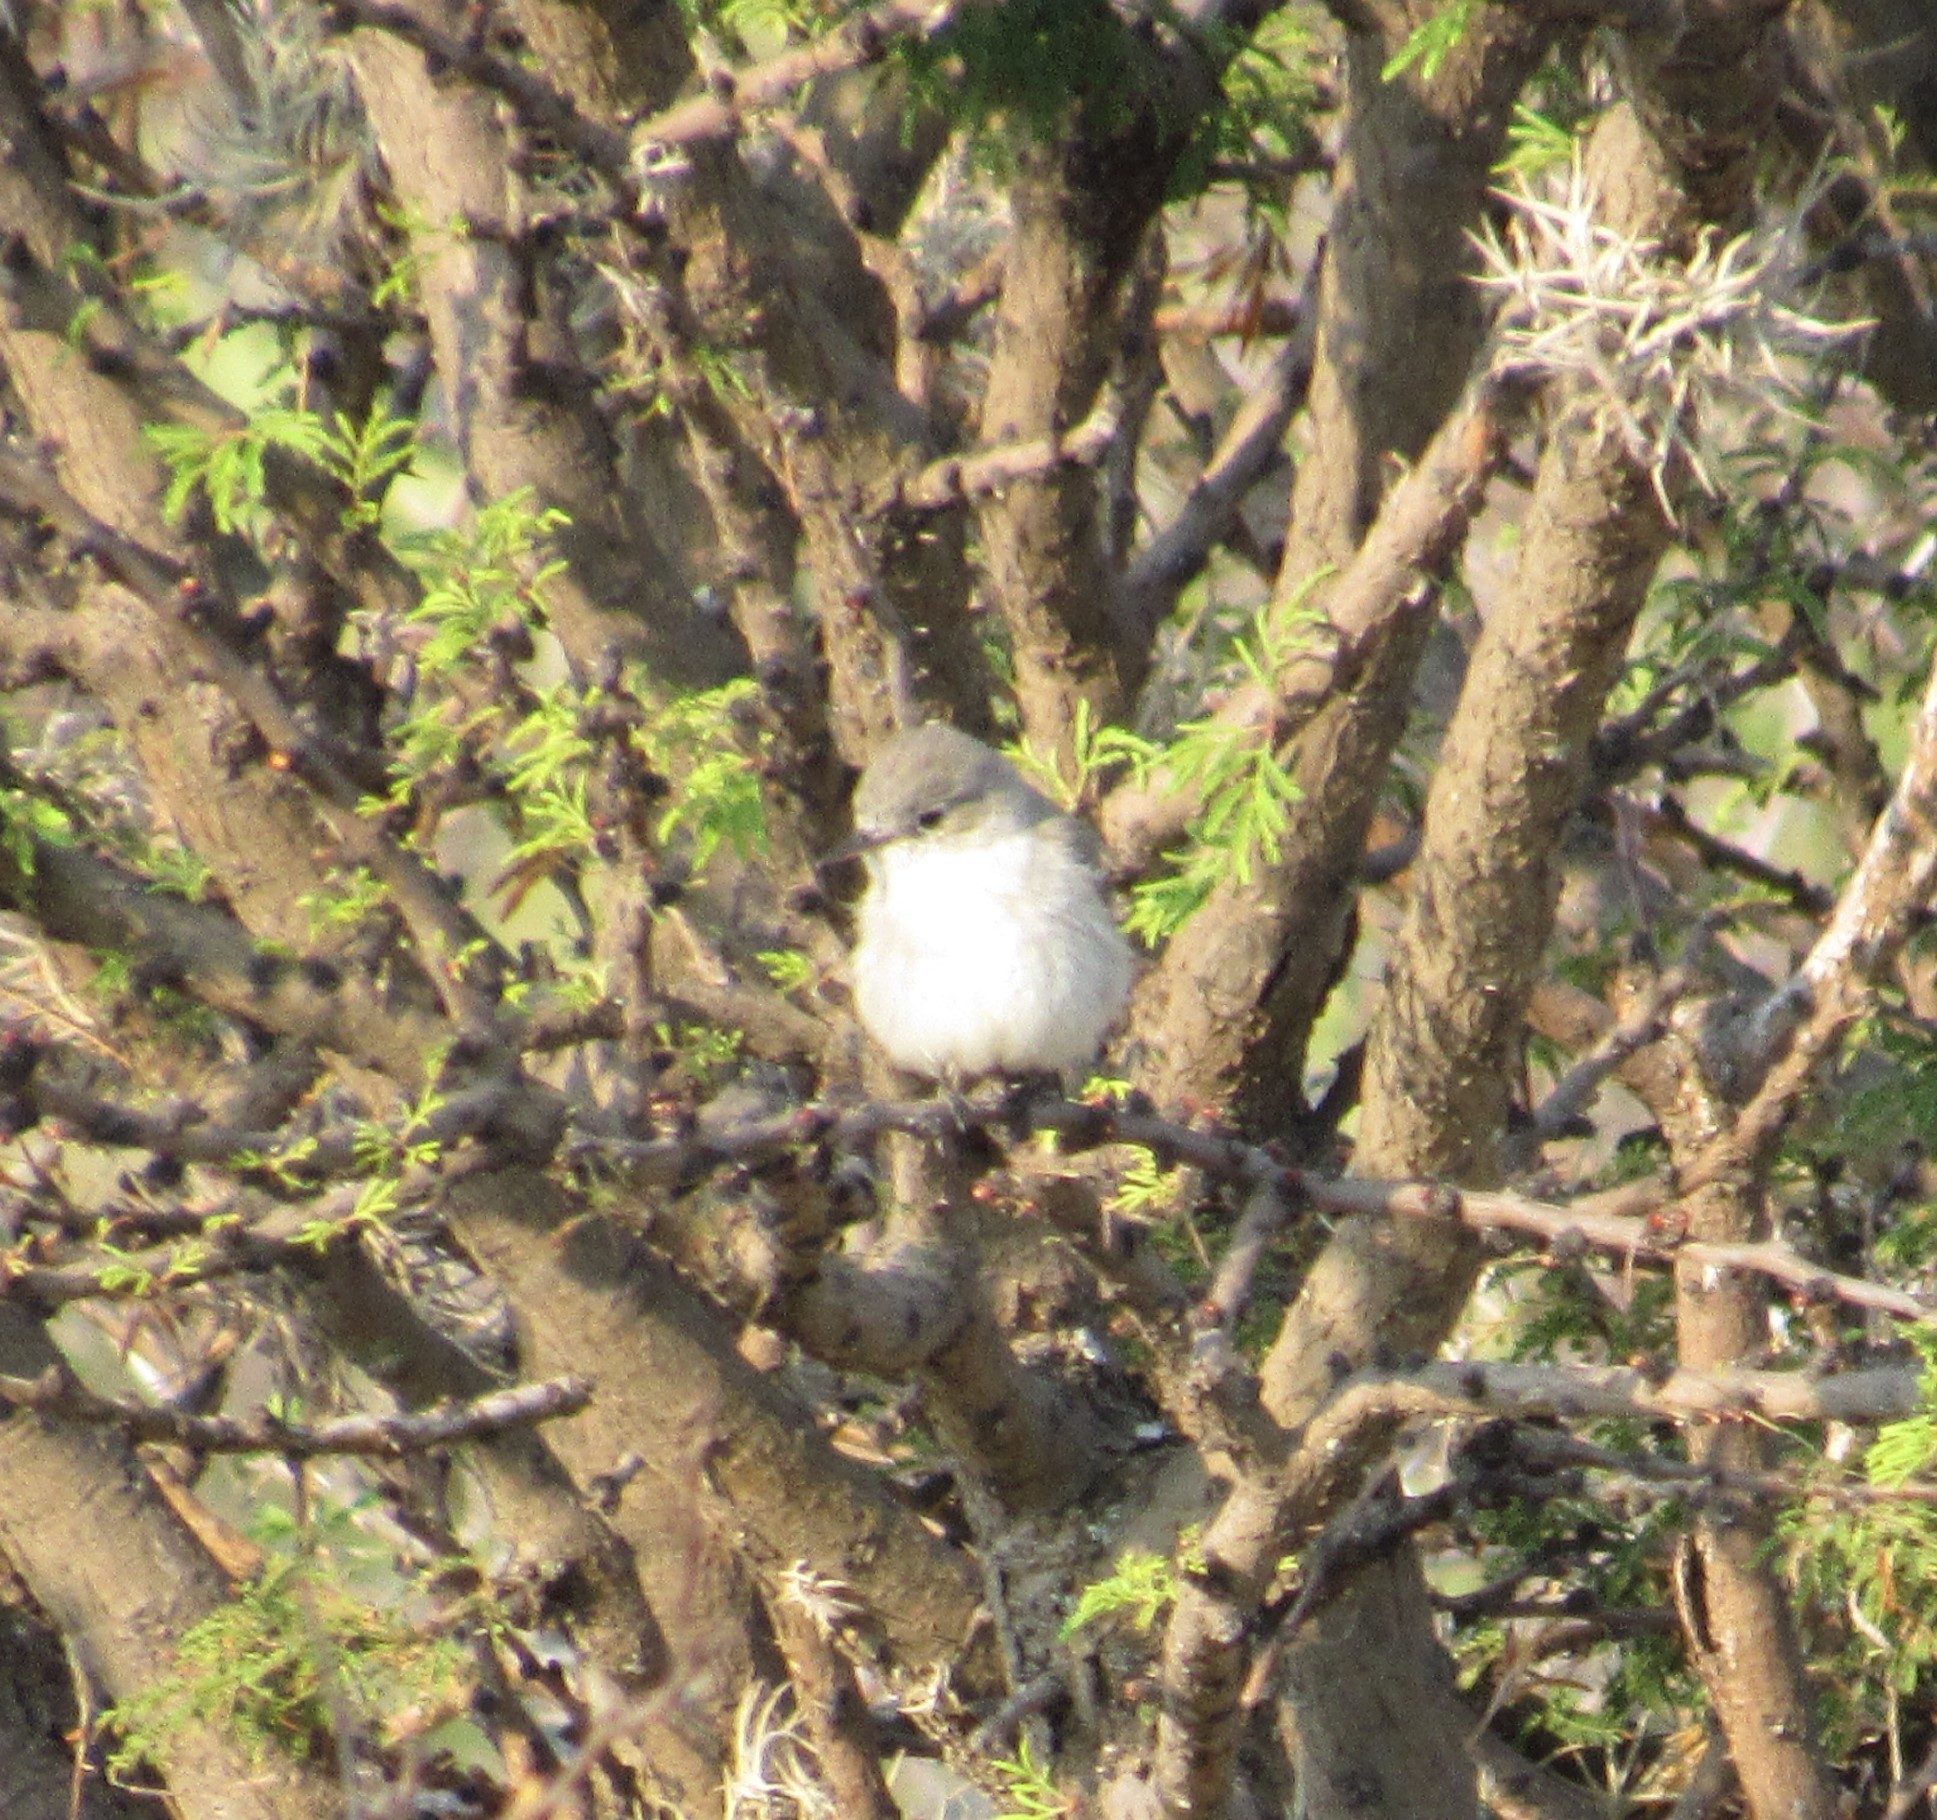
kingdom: Animalia
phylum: Chordata
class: Aves
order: Passeriformes
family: Tyrannidae
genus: Pyrocephalus
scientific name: Pyrocephalus rubinus
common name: Vermilion flycatcher
